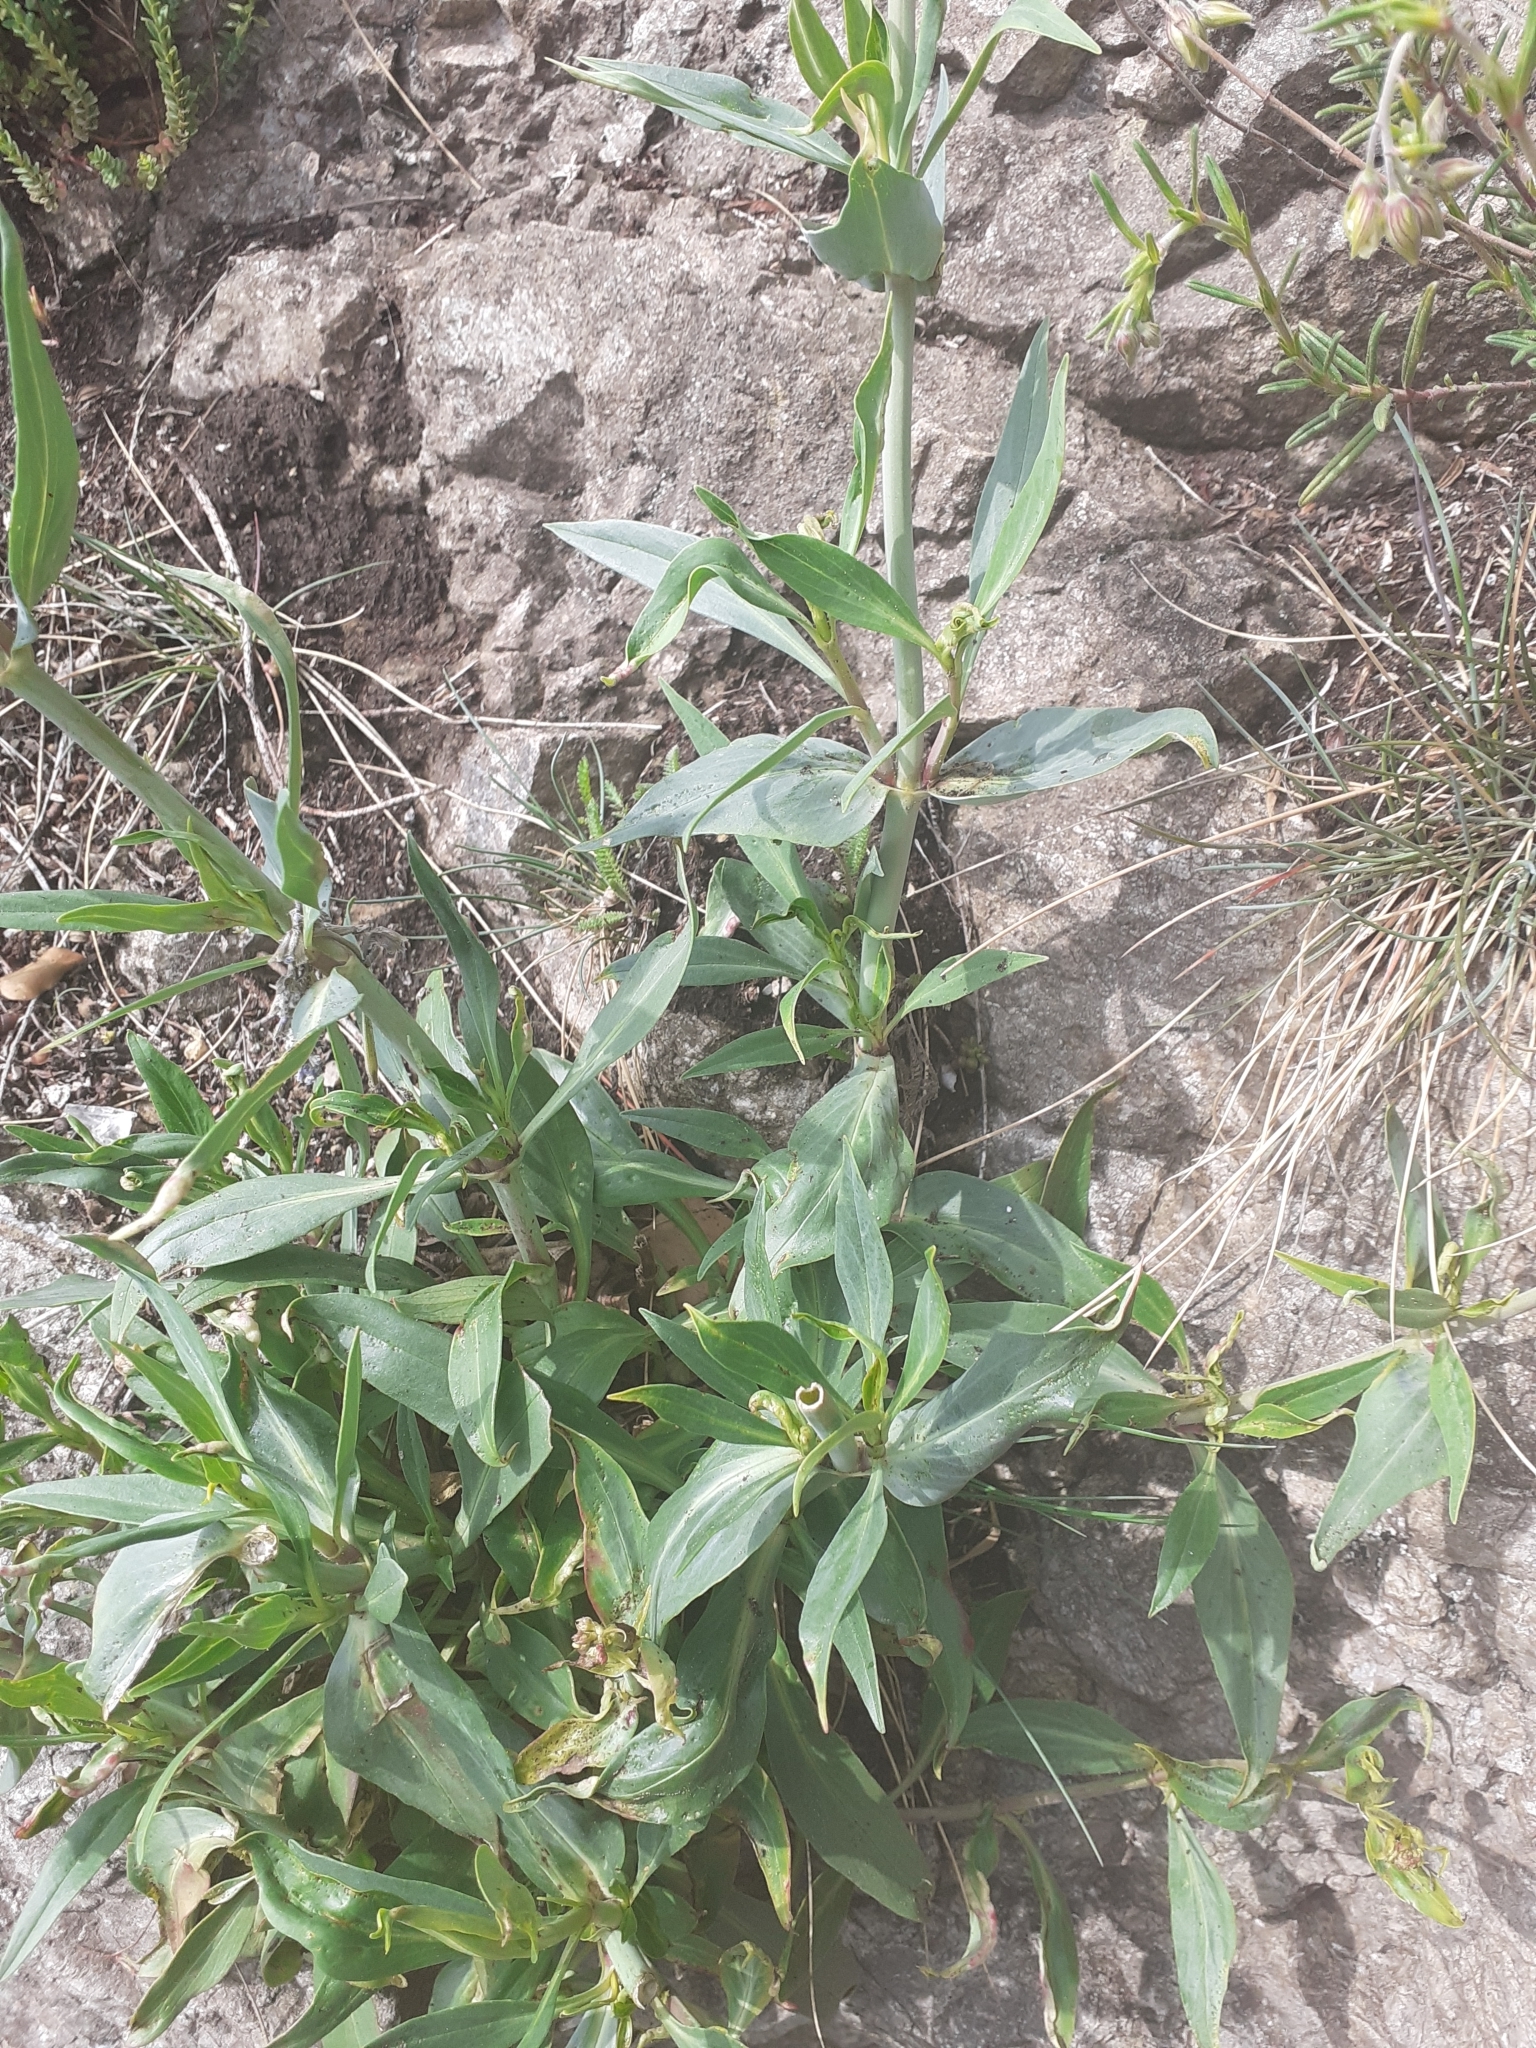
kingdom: Plantae
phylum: Tracheophyta
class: Magnoliopsida
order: Dipsacales
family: Caprifoliaceae
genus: Centranthus
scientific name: Centranthus ruber
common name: Red valerian
